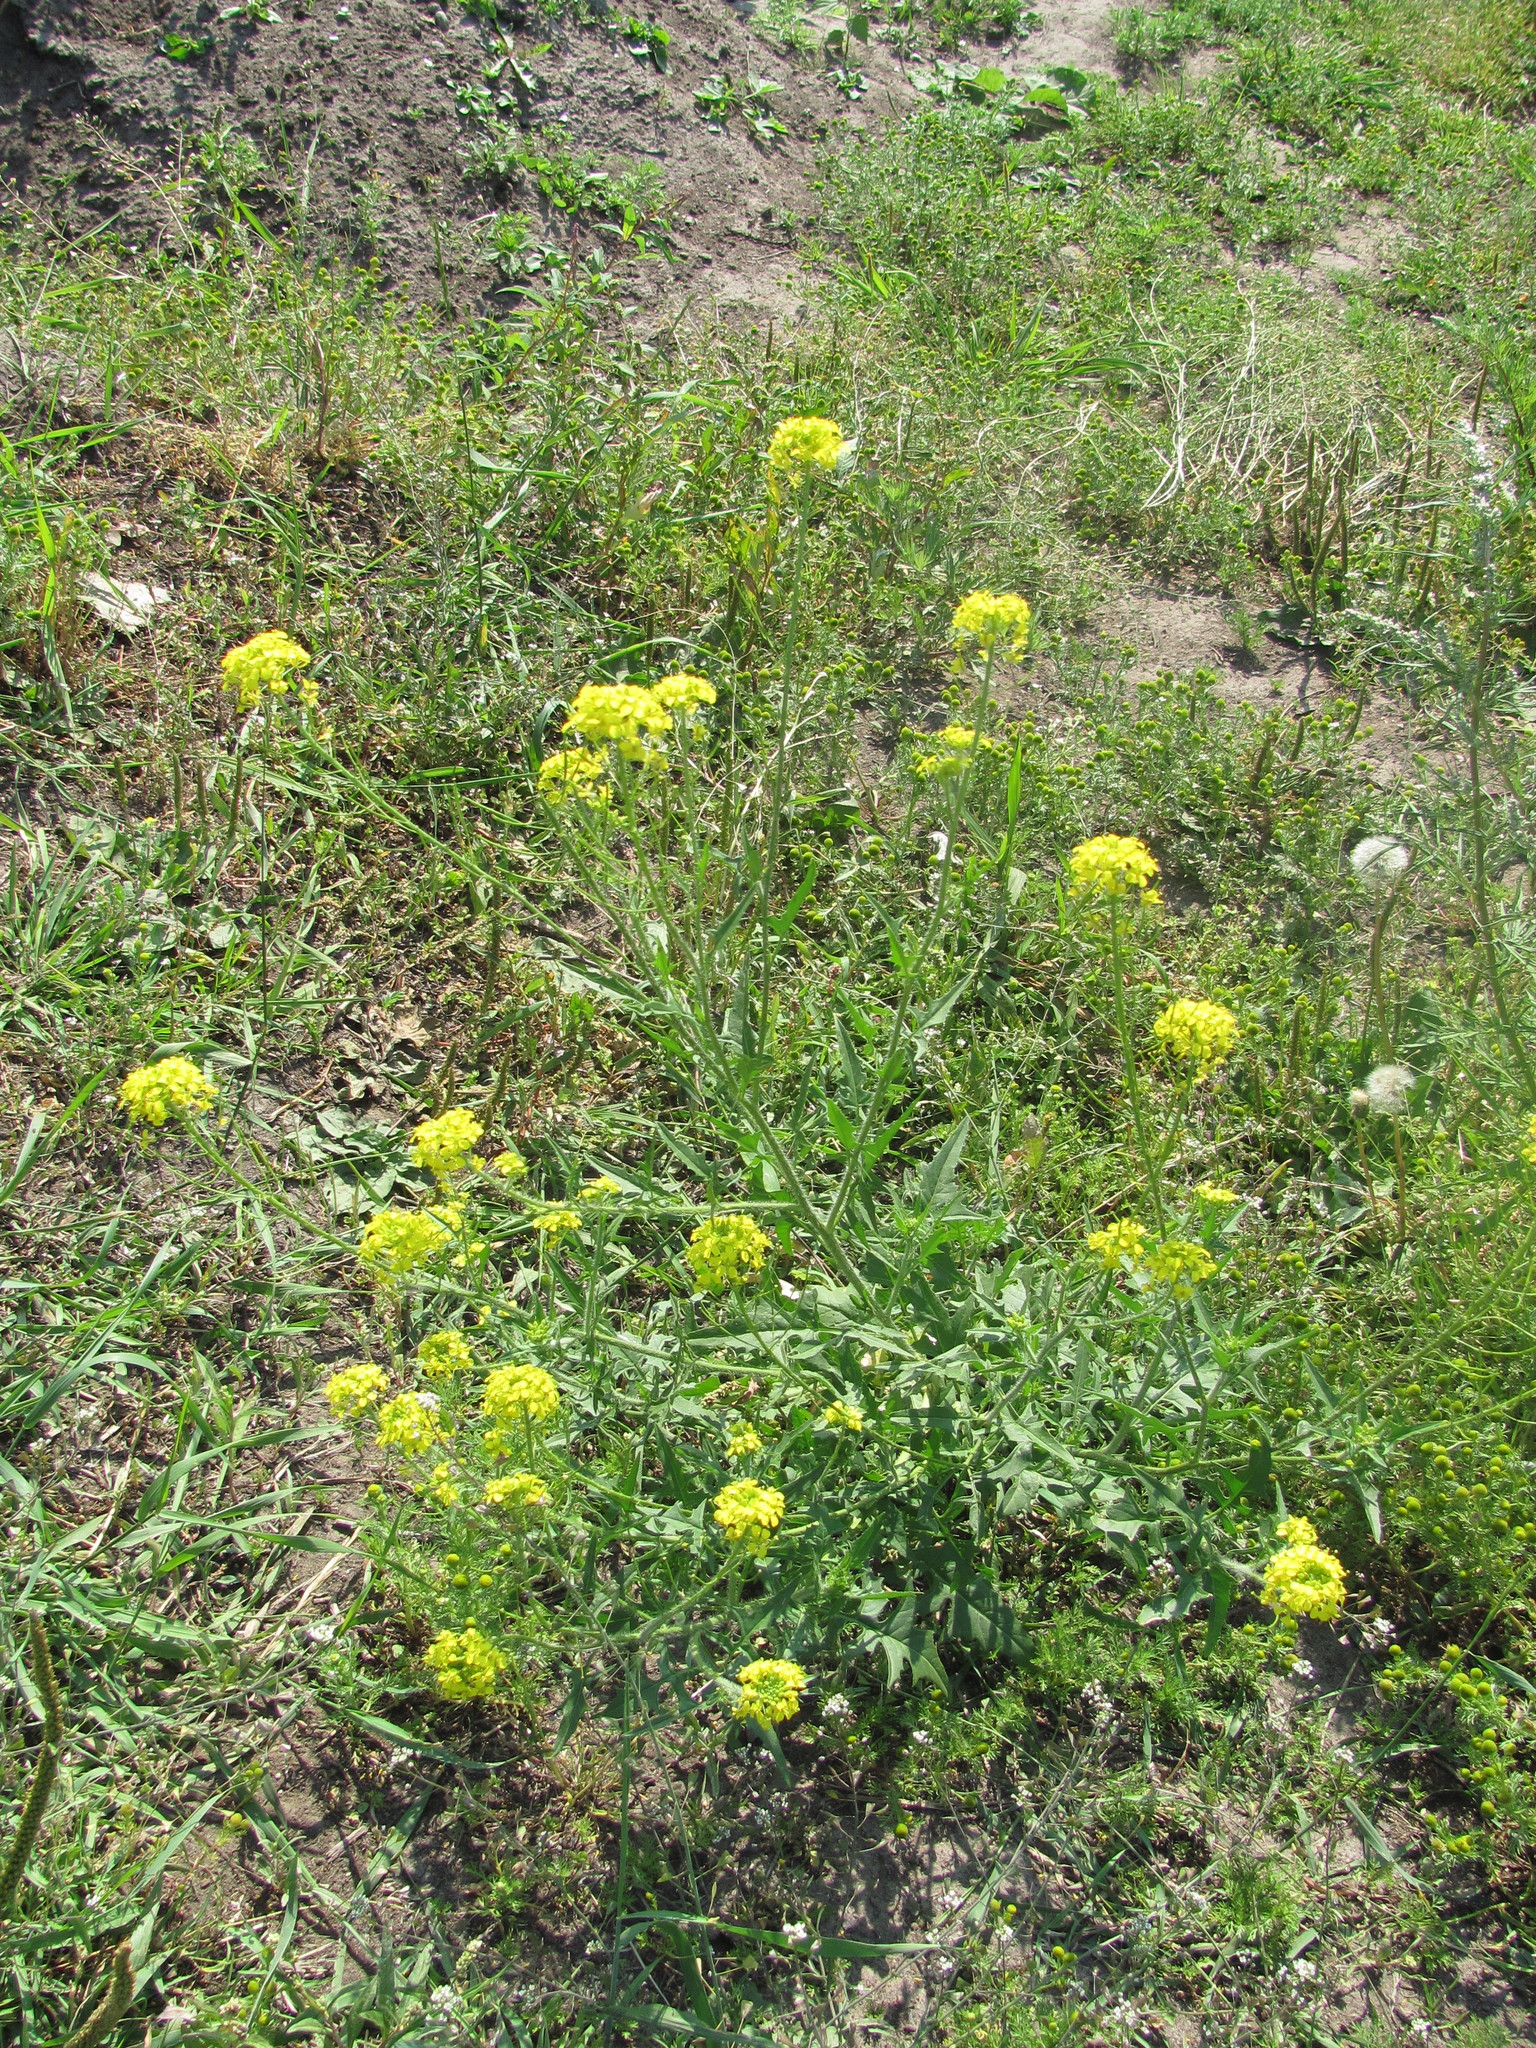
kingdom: Plantae
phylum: Tracheophyta
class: Magnoliopsida
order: Brassicales
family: Brassicaceae
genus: Sisymbrium
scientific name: Sisymbrium loeselii
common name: False london-rocket
